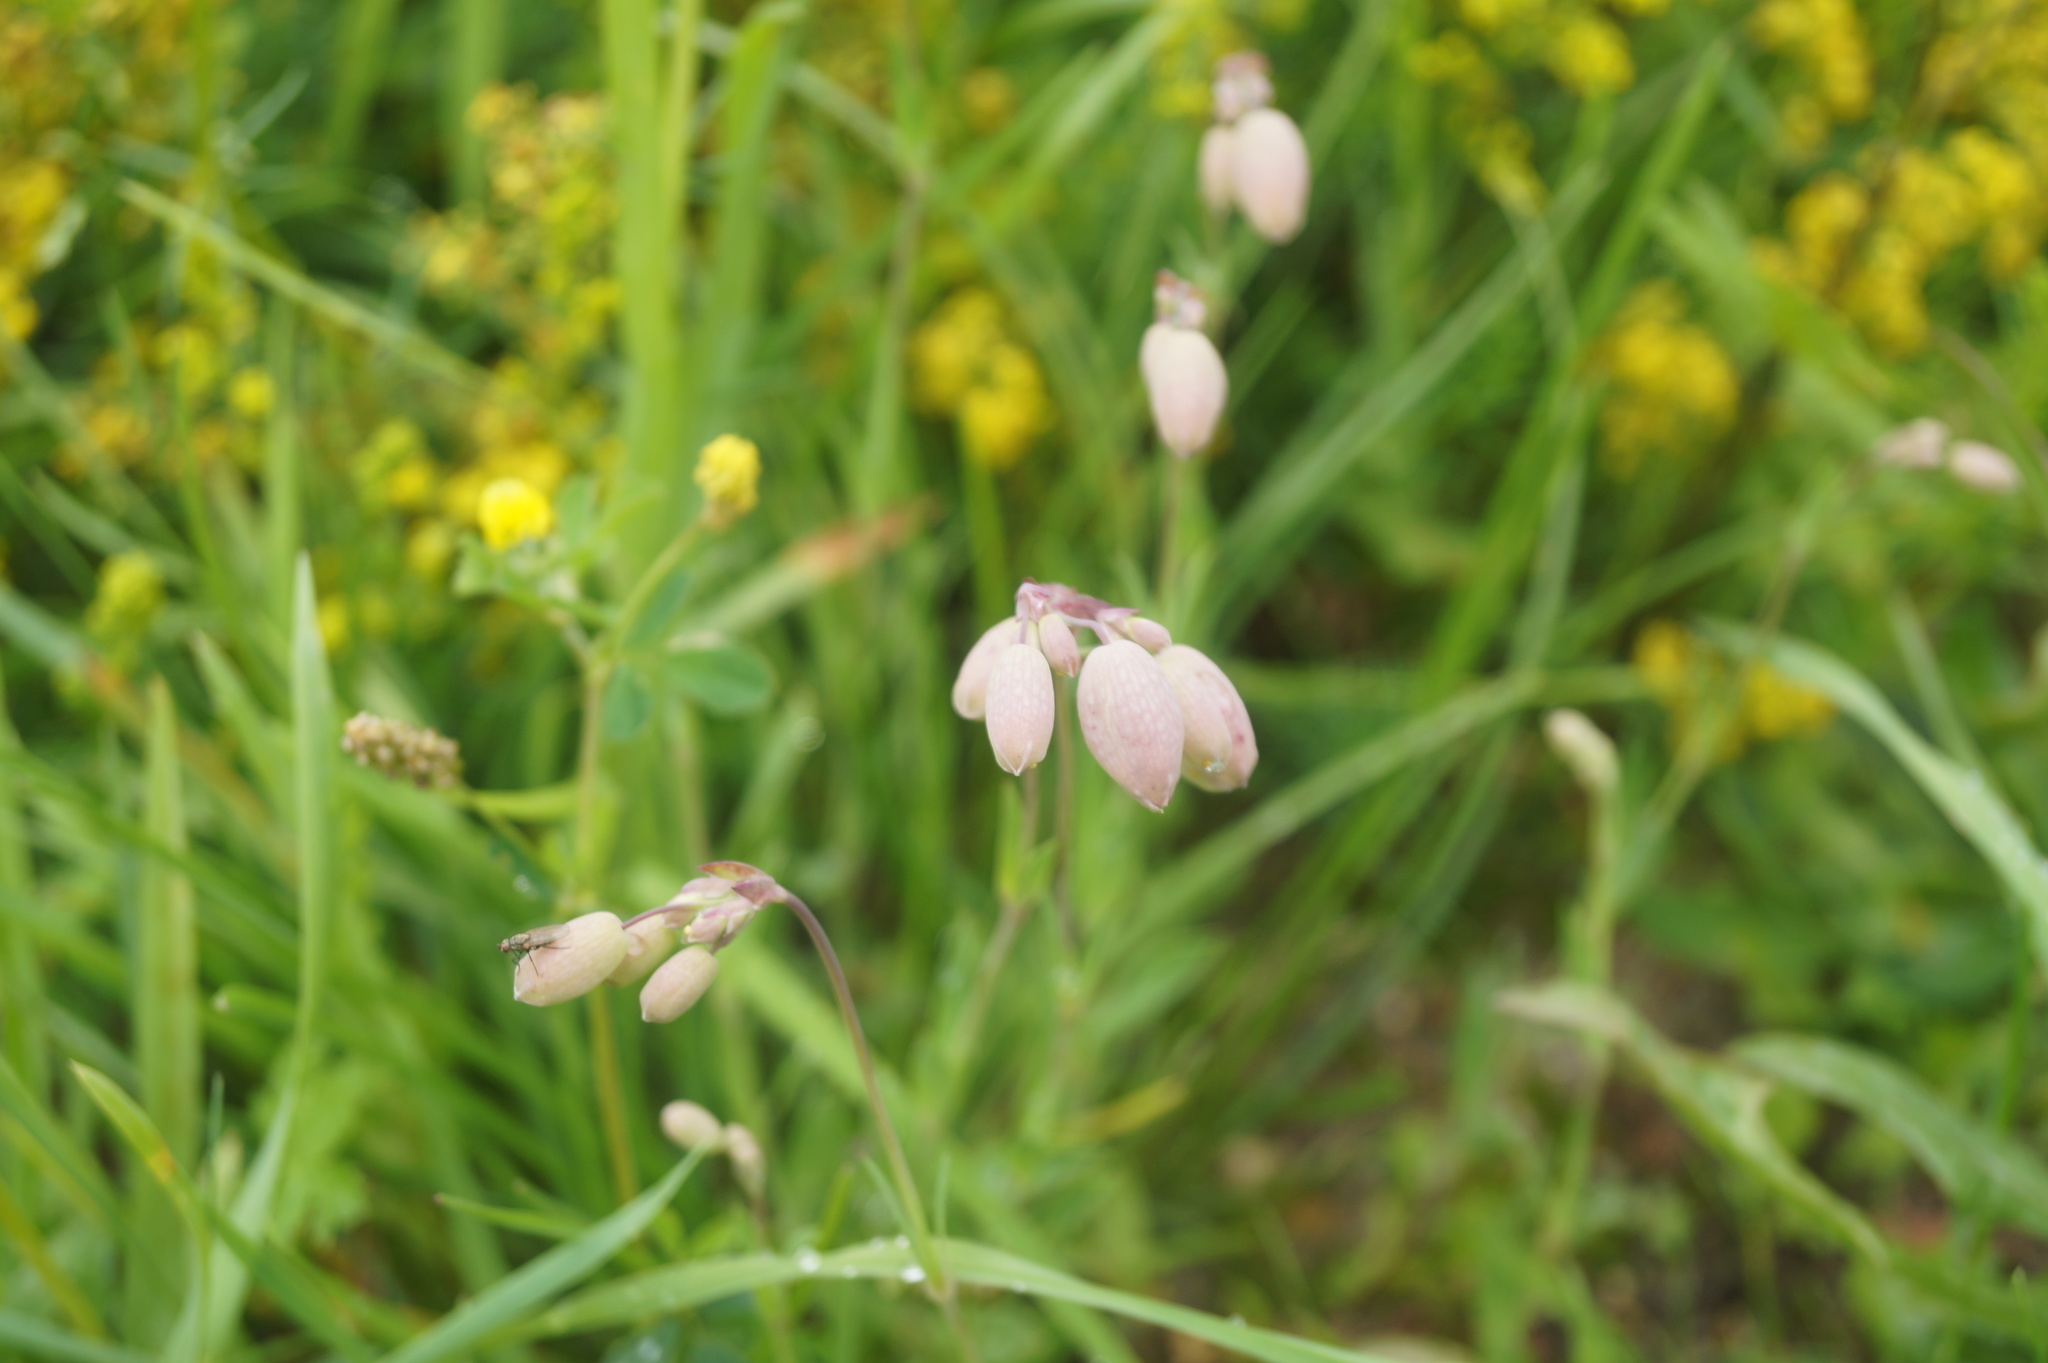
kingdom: Plantae
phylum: Tracheophyta
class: Magnoliopsida
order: Caryophyllales
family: Caryophyllaceae
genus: Silene
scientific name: Silene vulgaris
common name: Bladder campion
